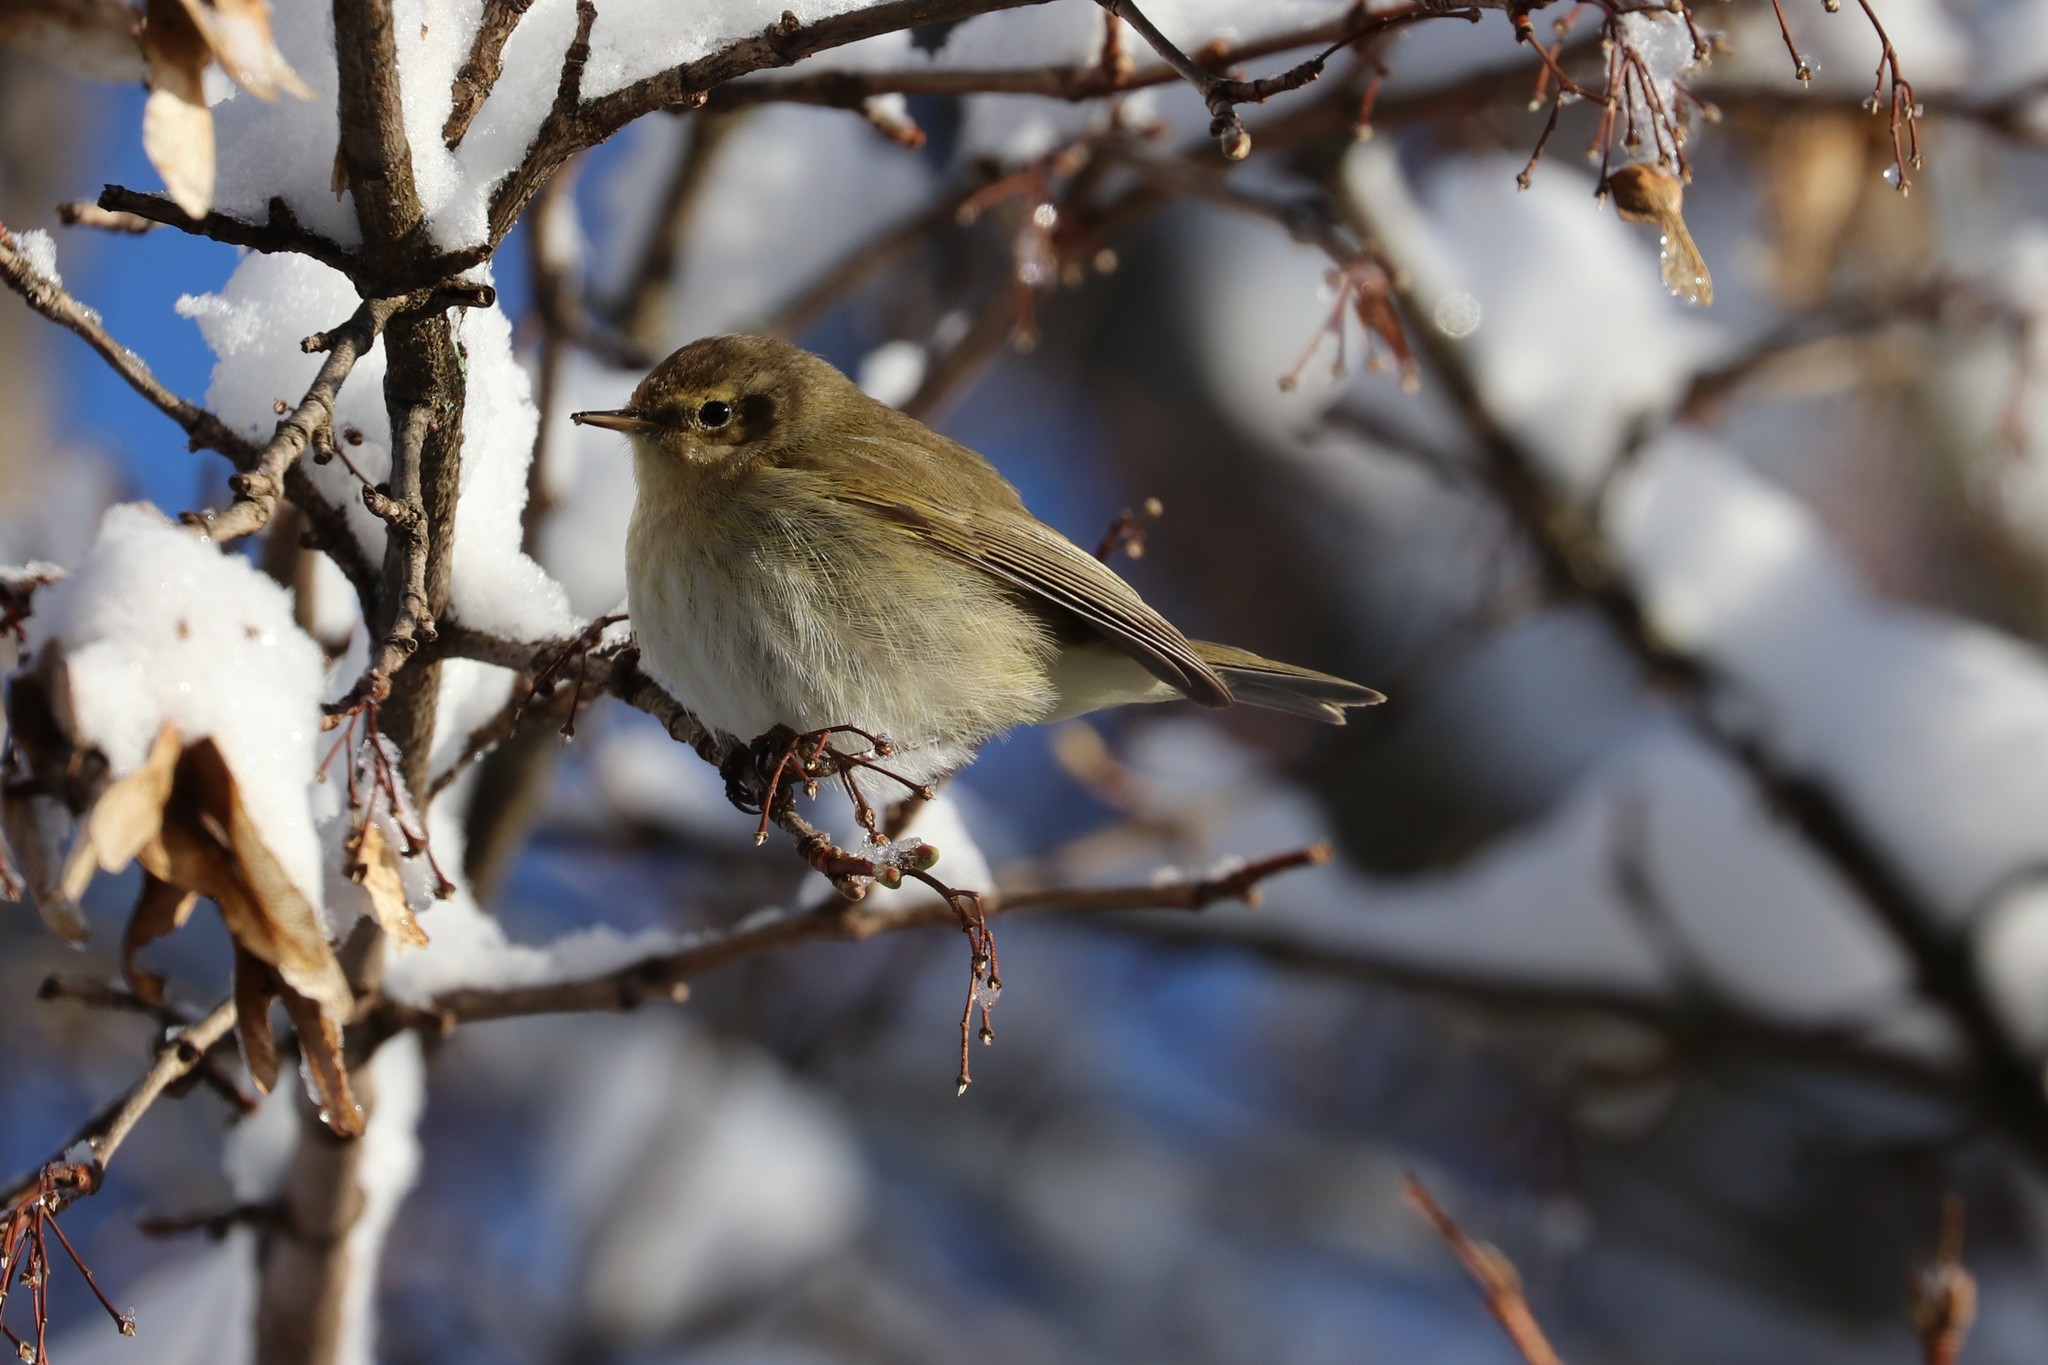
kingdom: Animalia
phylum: Chordata
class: Aves
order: Passeriformes
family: Phylloscopidae
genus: Phylloscopus
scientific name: Phylloscopus collybita
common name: Common chiffchaff
